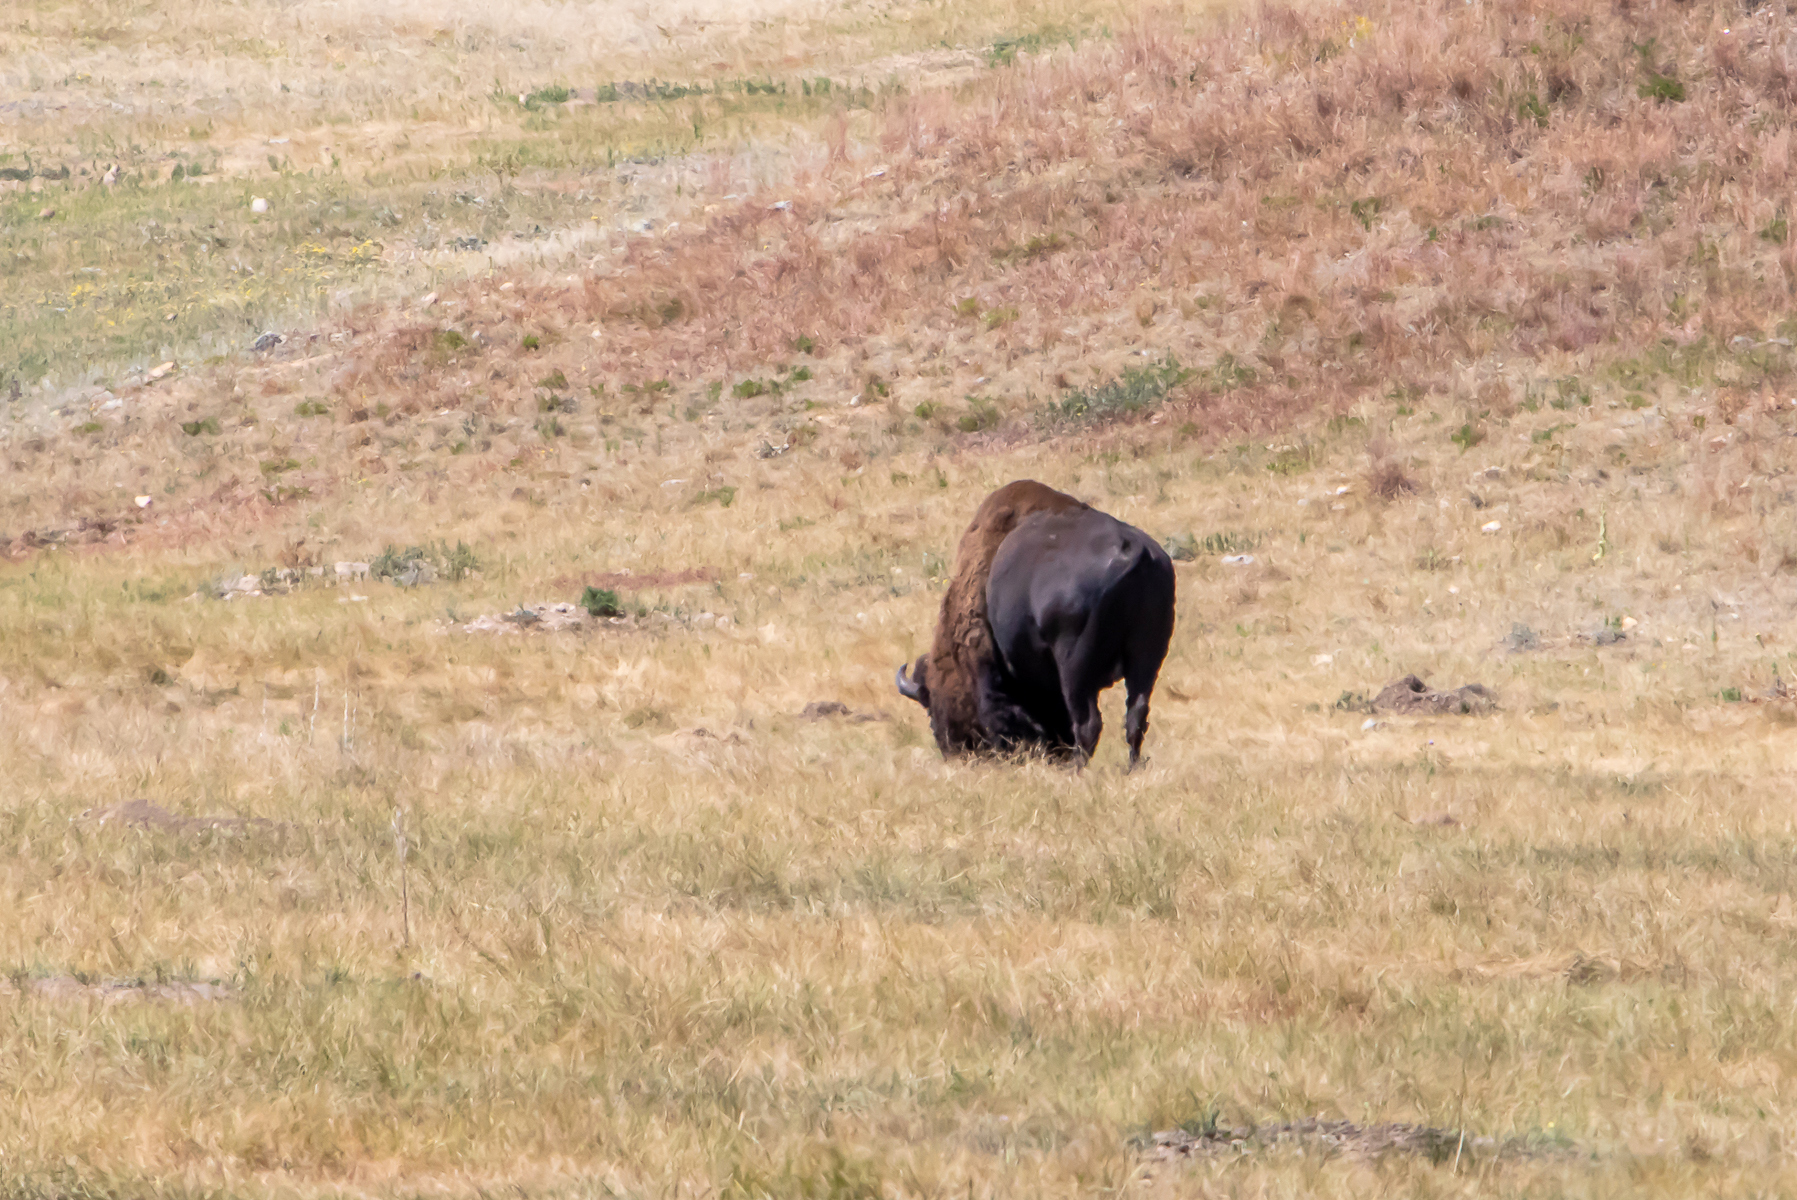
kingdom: Animalia
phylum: Chordata
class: Mammalia
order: Artiodactyla
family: Bovidae
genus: Bison
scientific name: Bison bison
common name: American bison
